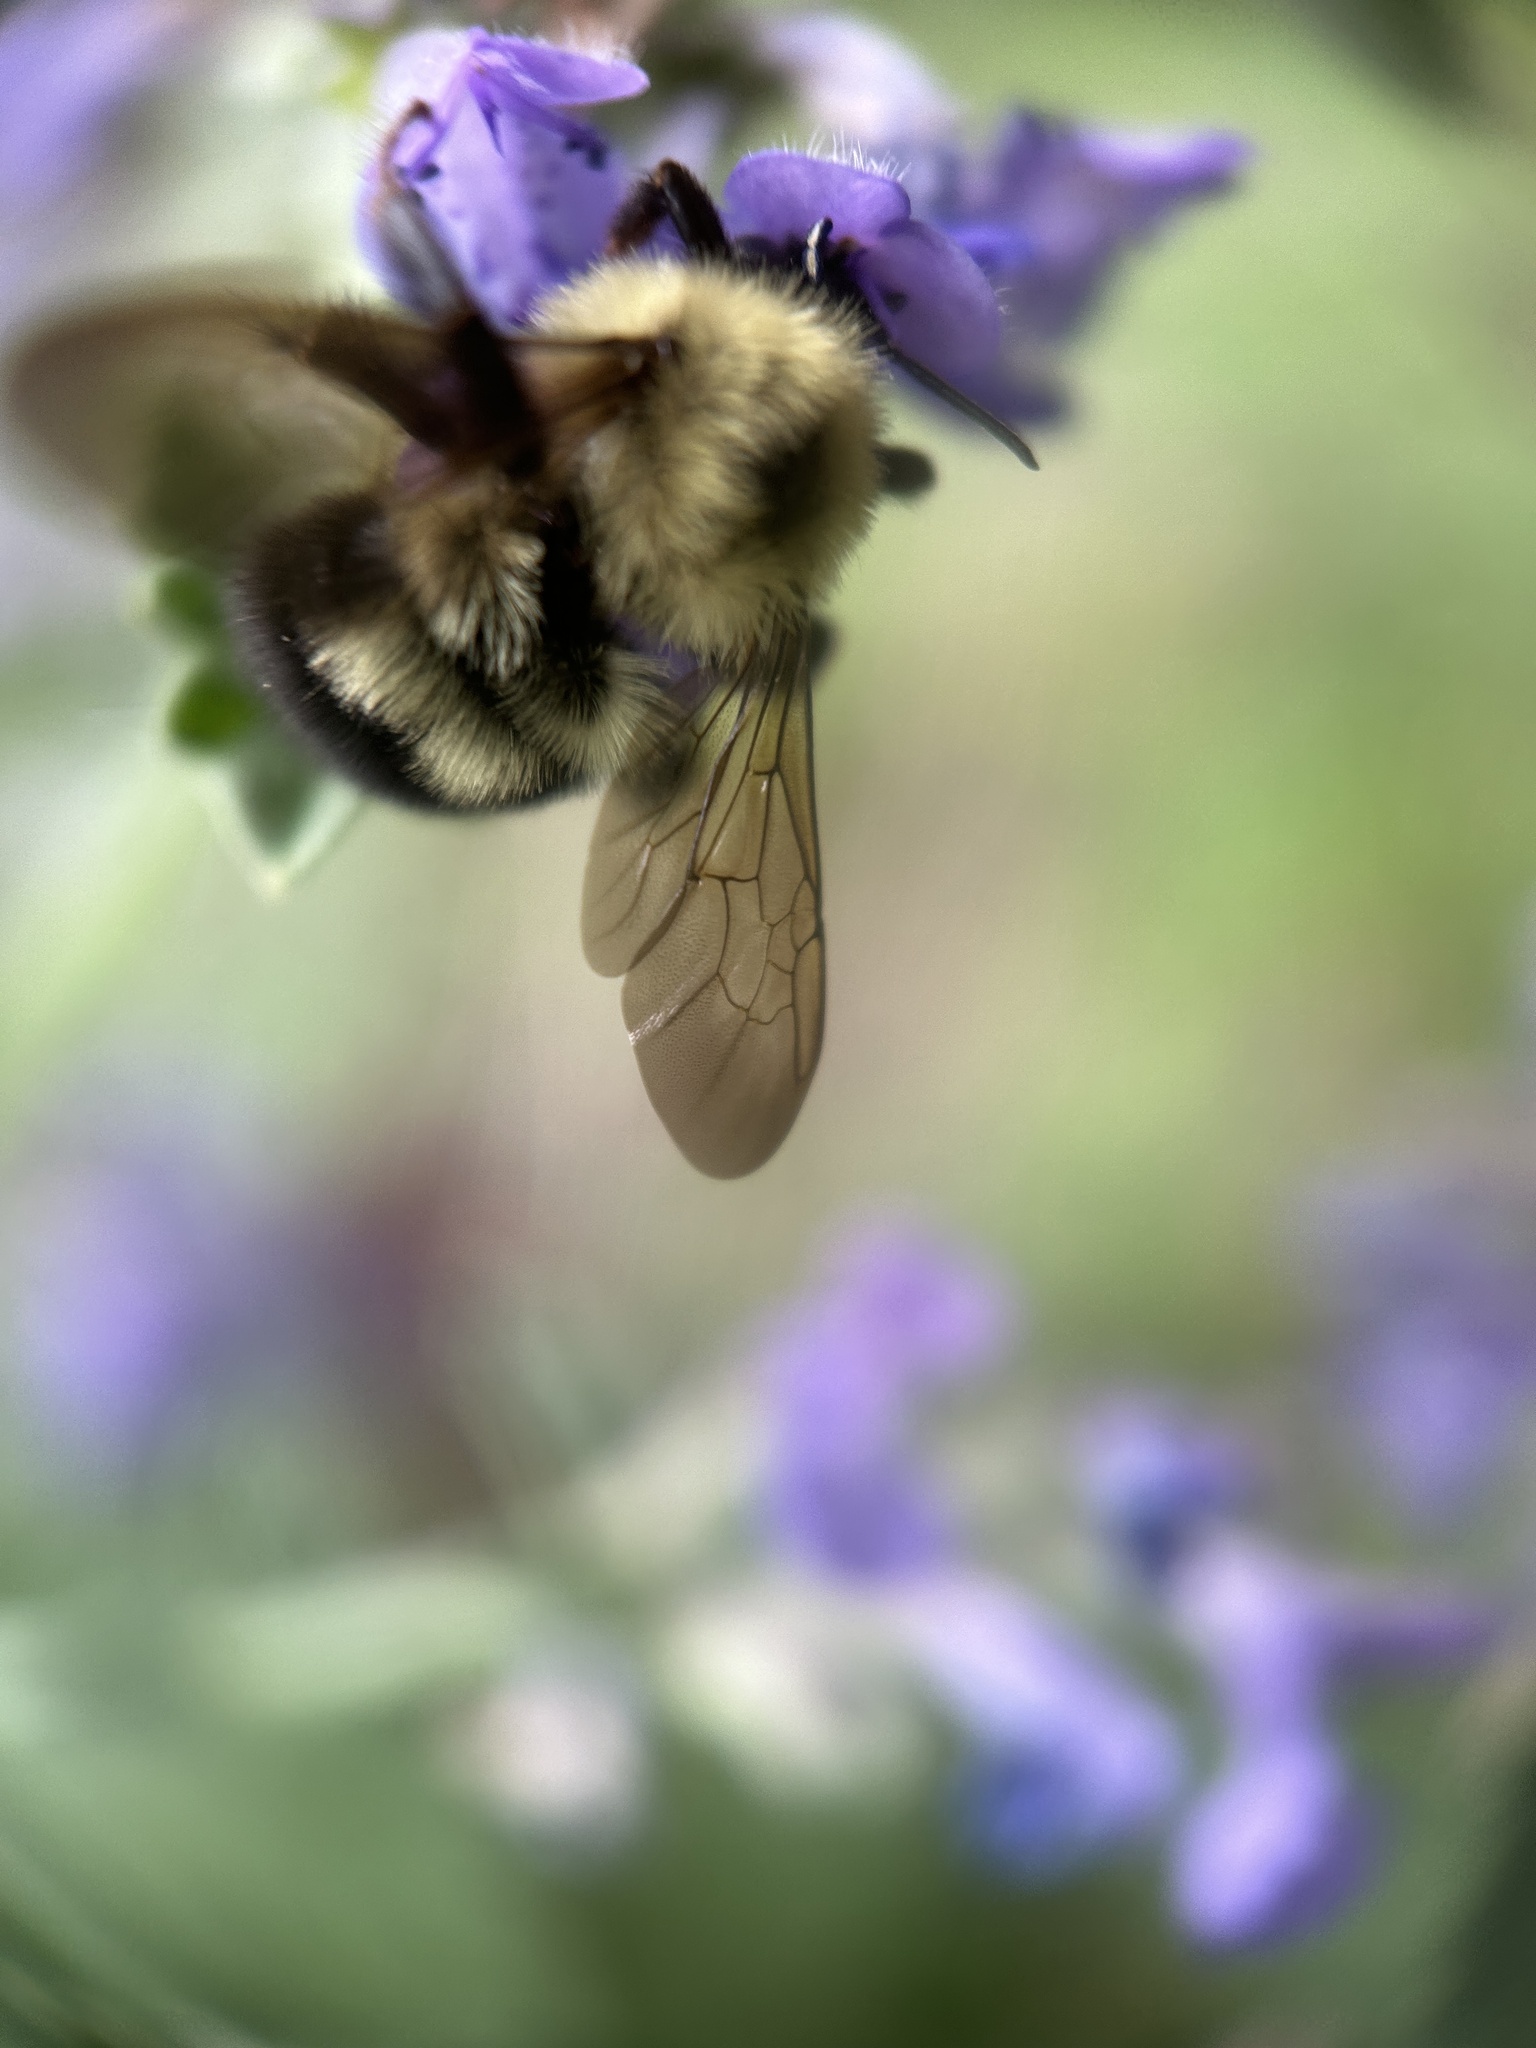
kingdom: Animalia
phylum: Arthropoda
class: Insecta
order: Hymenoptera
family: Apidae
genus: Bombus
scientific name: Bombus bimaculatus
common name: Two-spotted bumble bee
